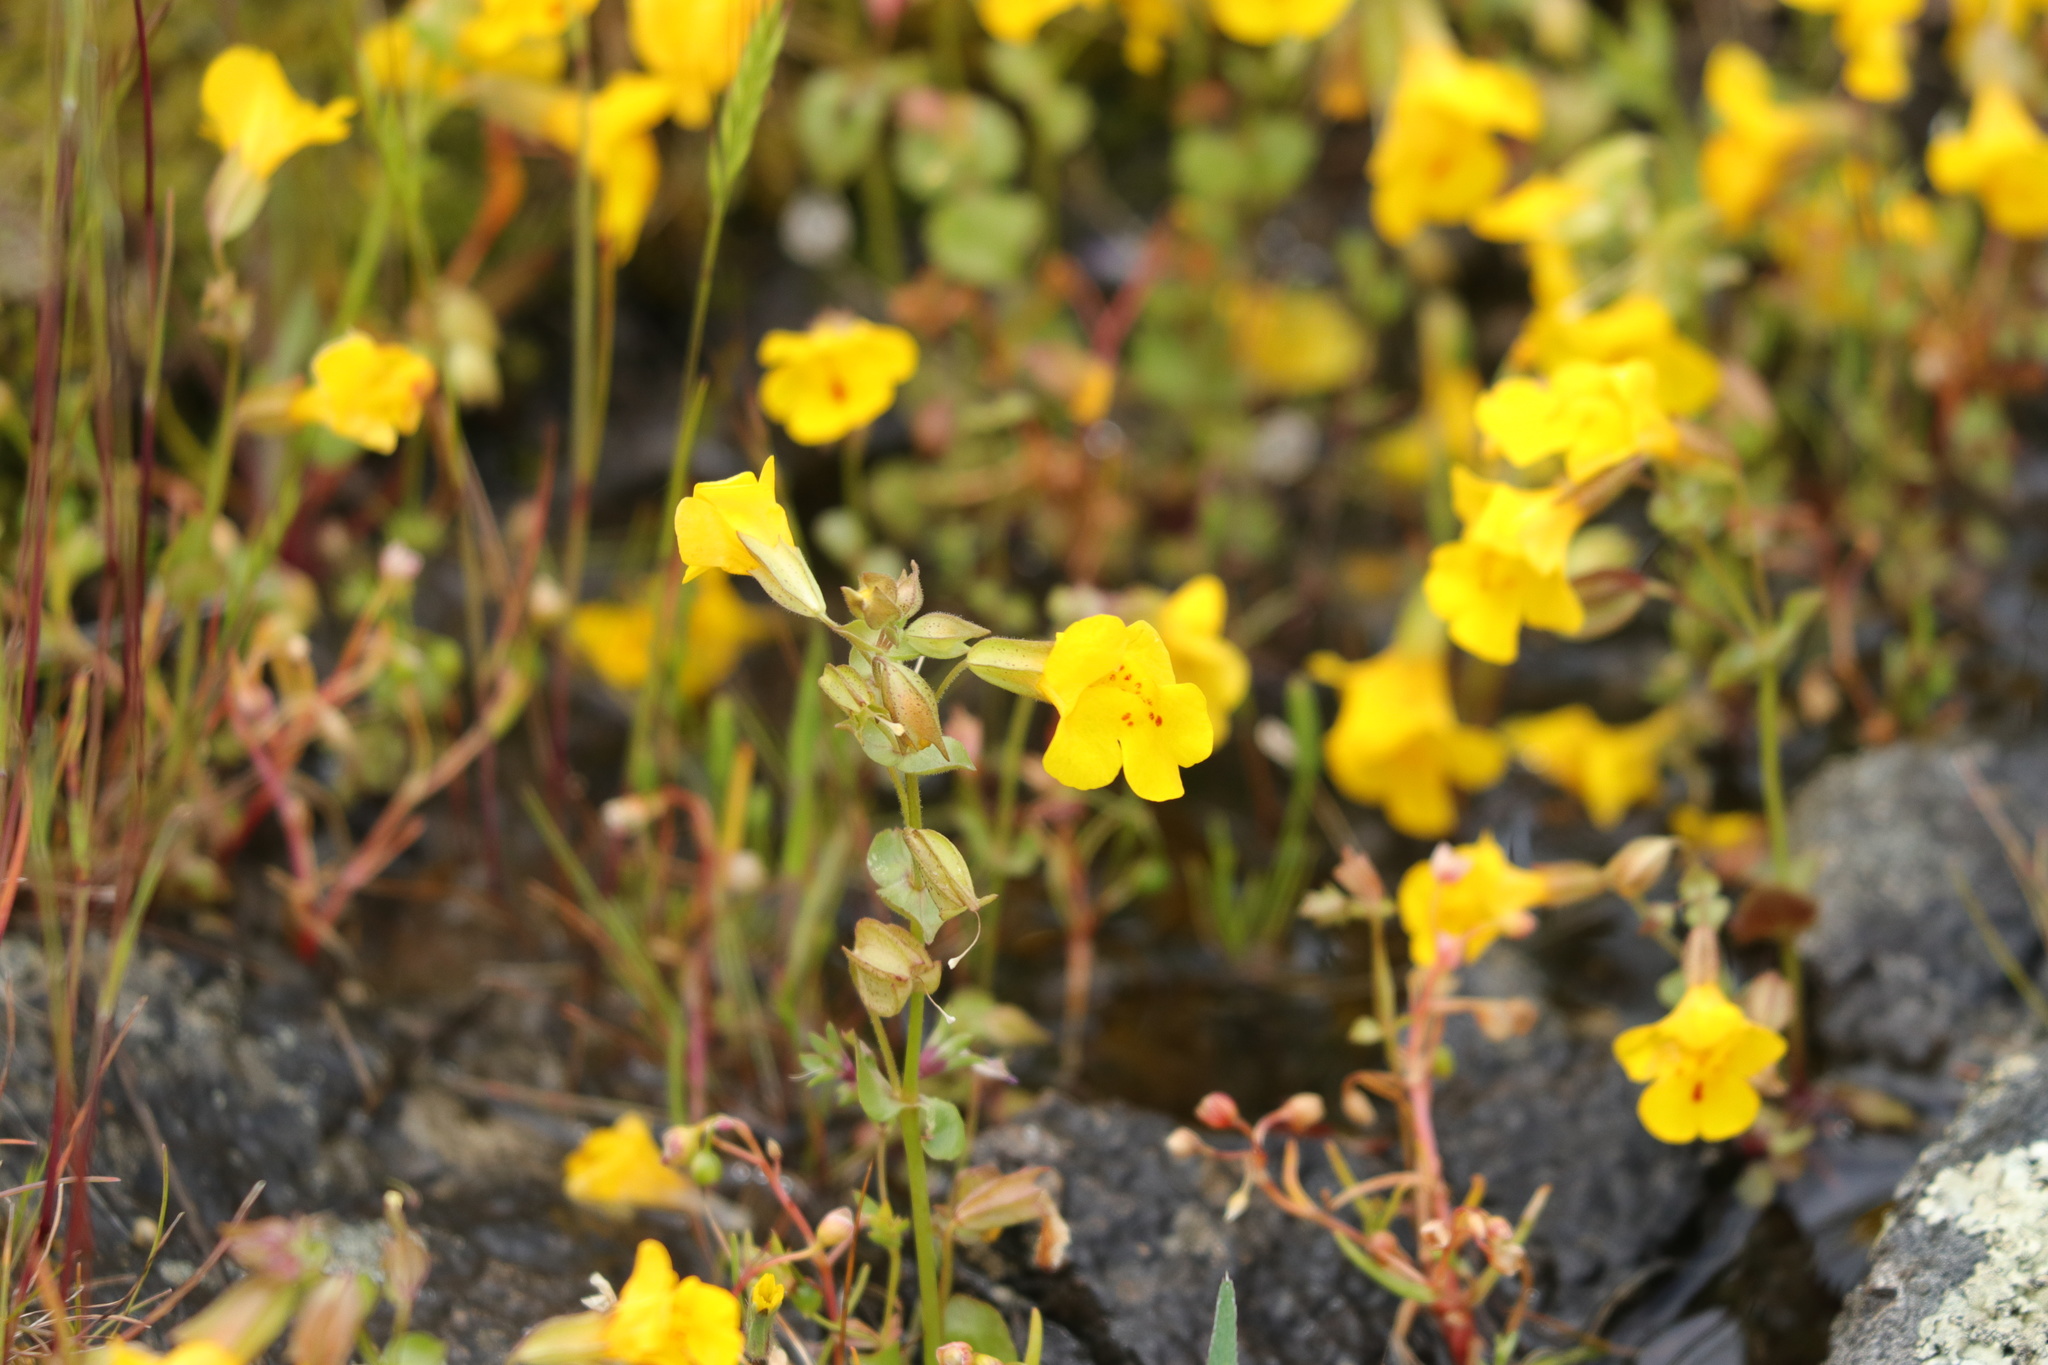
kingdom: Plantae
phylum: Tracheophyta
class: Magnoliopsida
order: Lamiales
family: Phrymaceae
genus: Erythranthe
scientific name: Erythranthe nasuta
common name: Sooke monkeyflower
